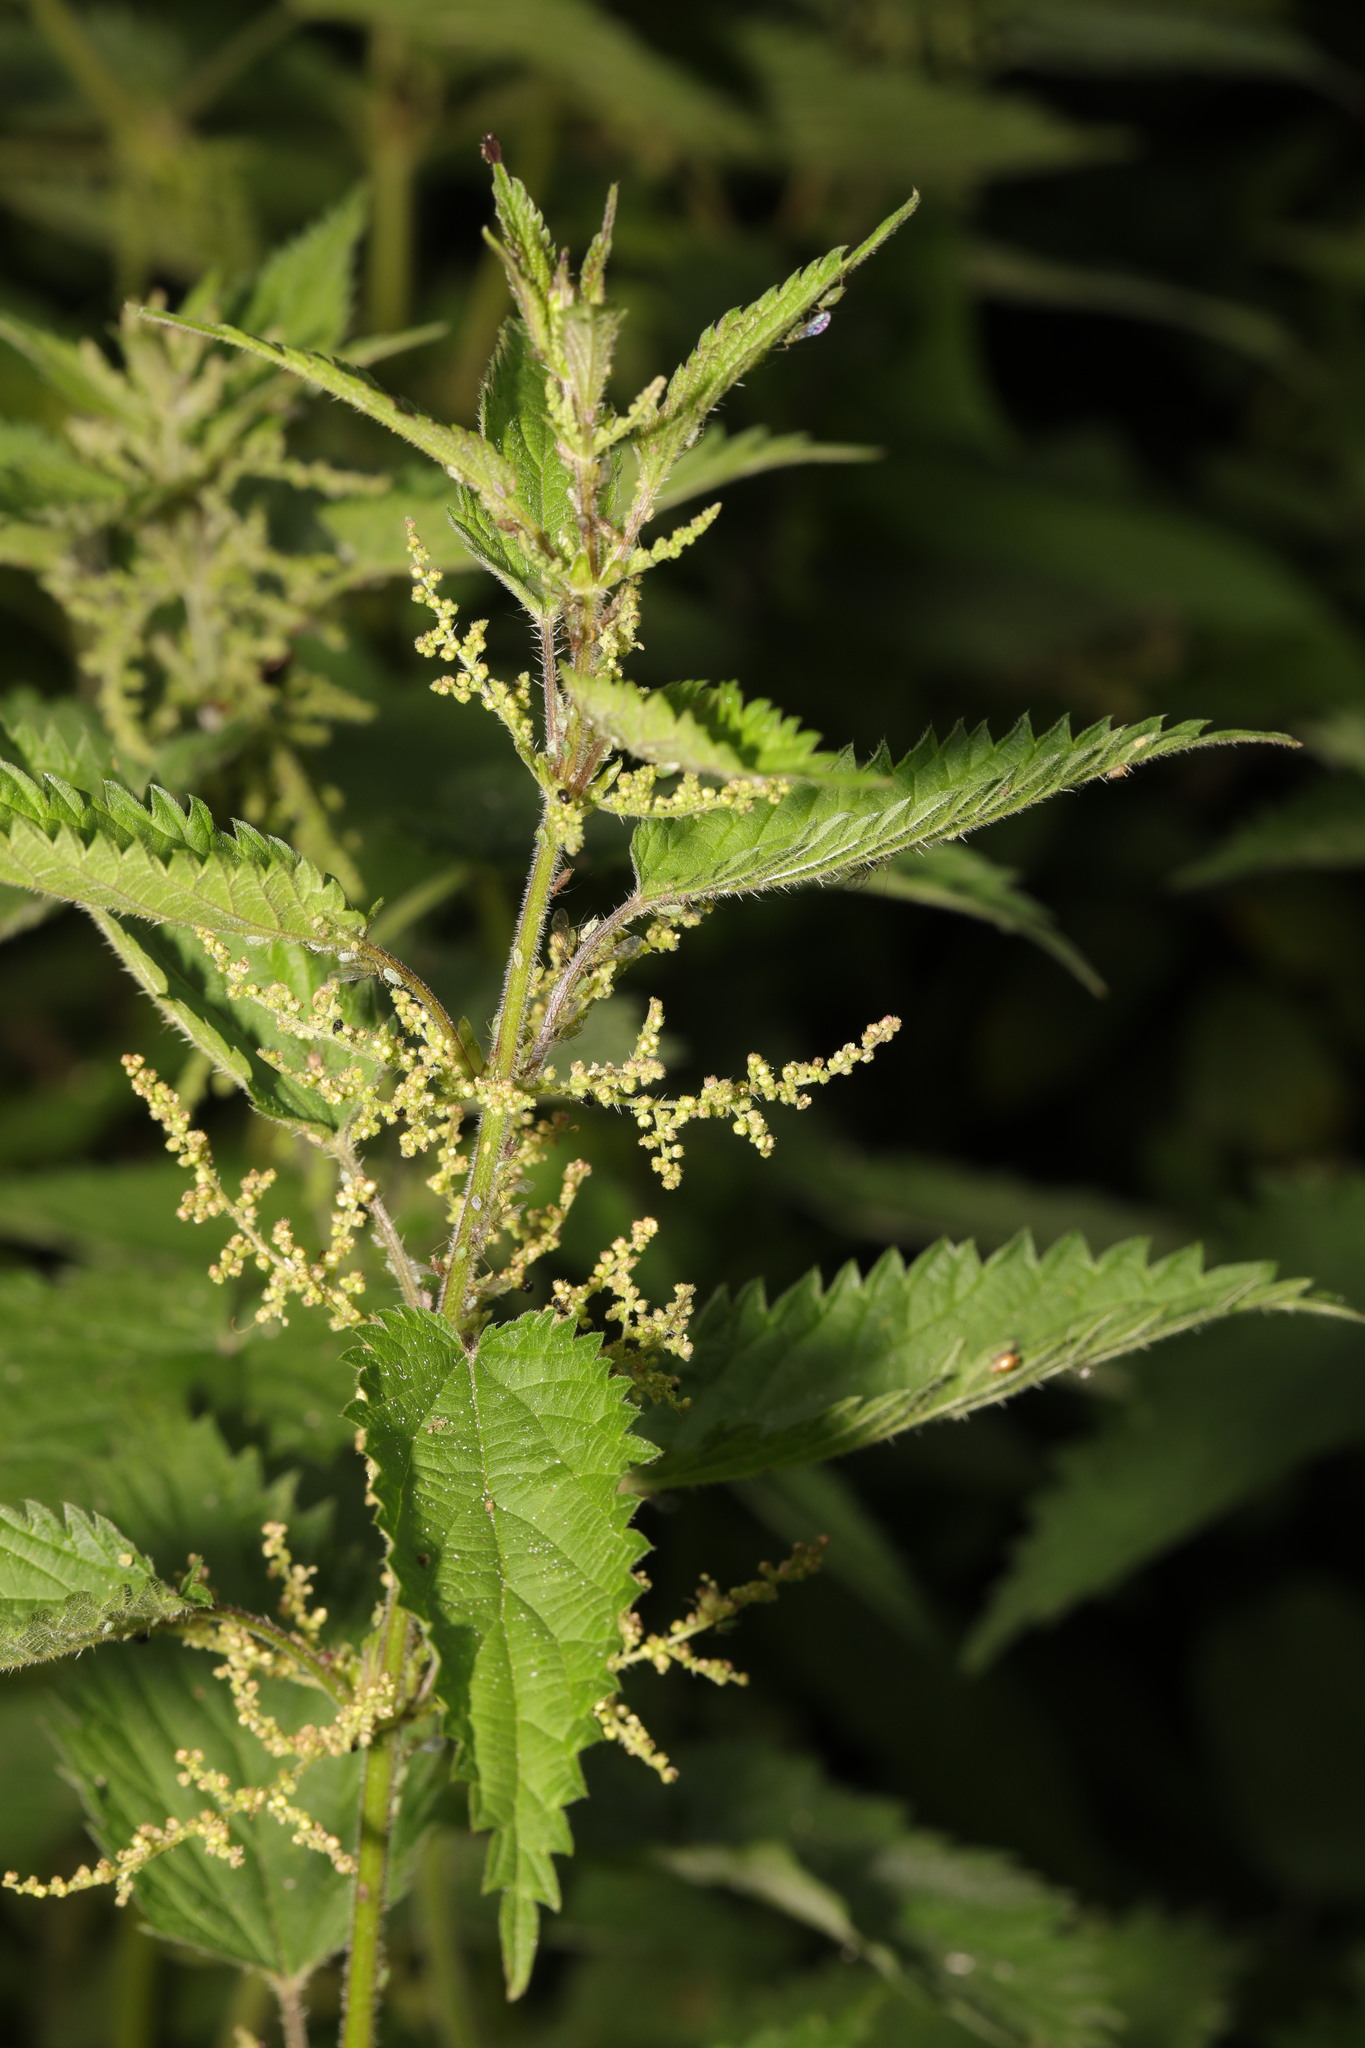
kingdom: Plantae
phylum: Tracheophyta
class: Magnoliopsida
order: Rosales
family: Urticaceae
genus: Urtica
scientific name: Urtica dioica
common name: Common nettle
